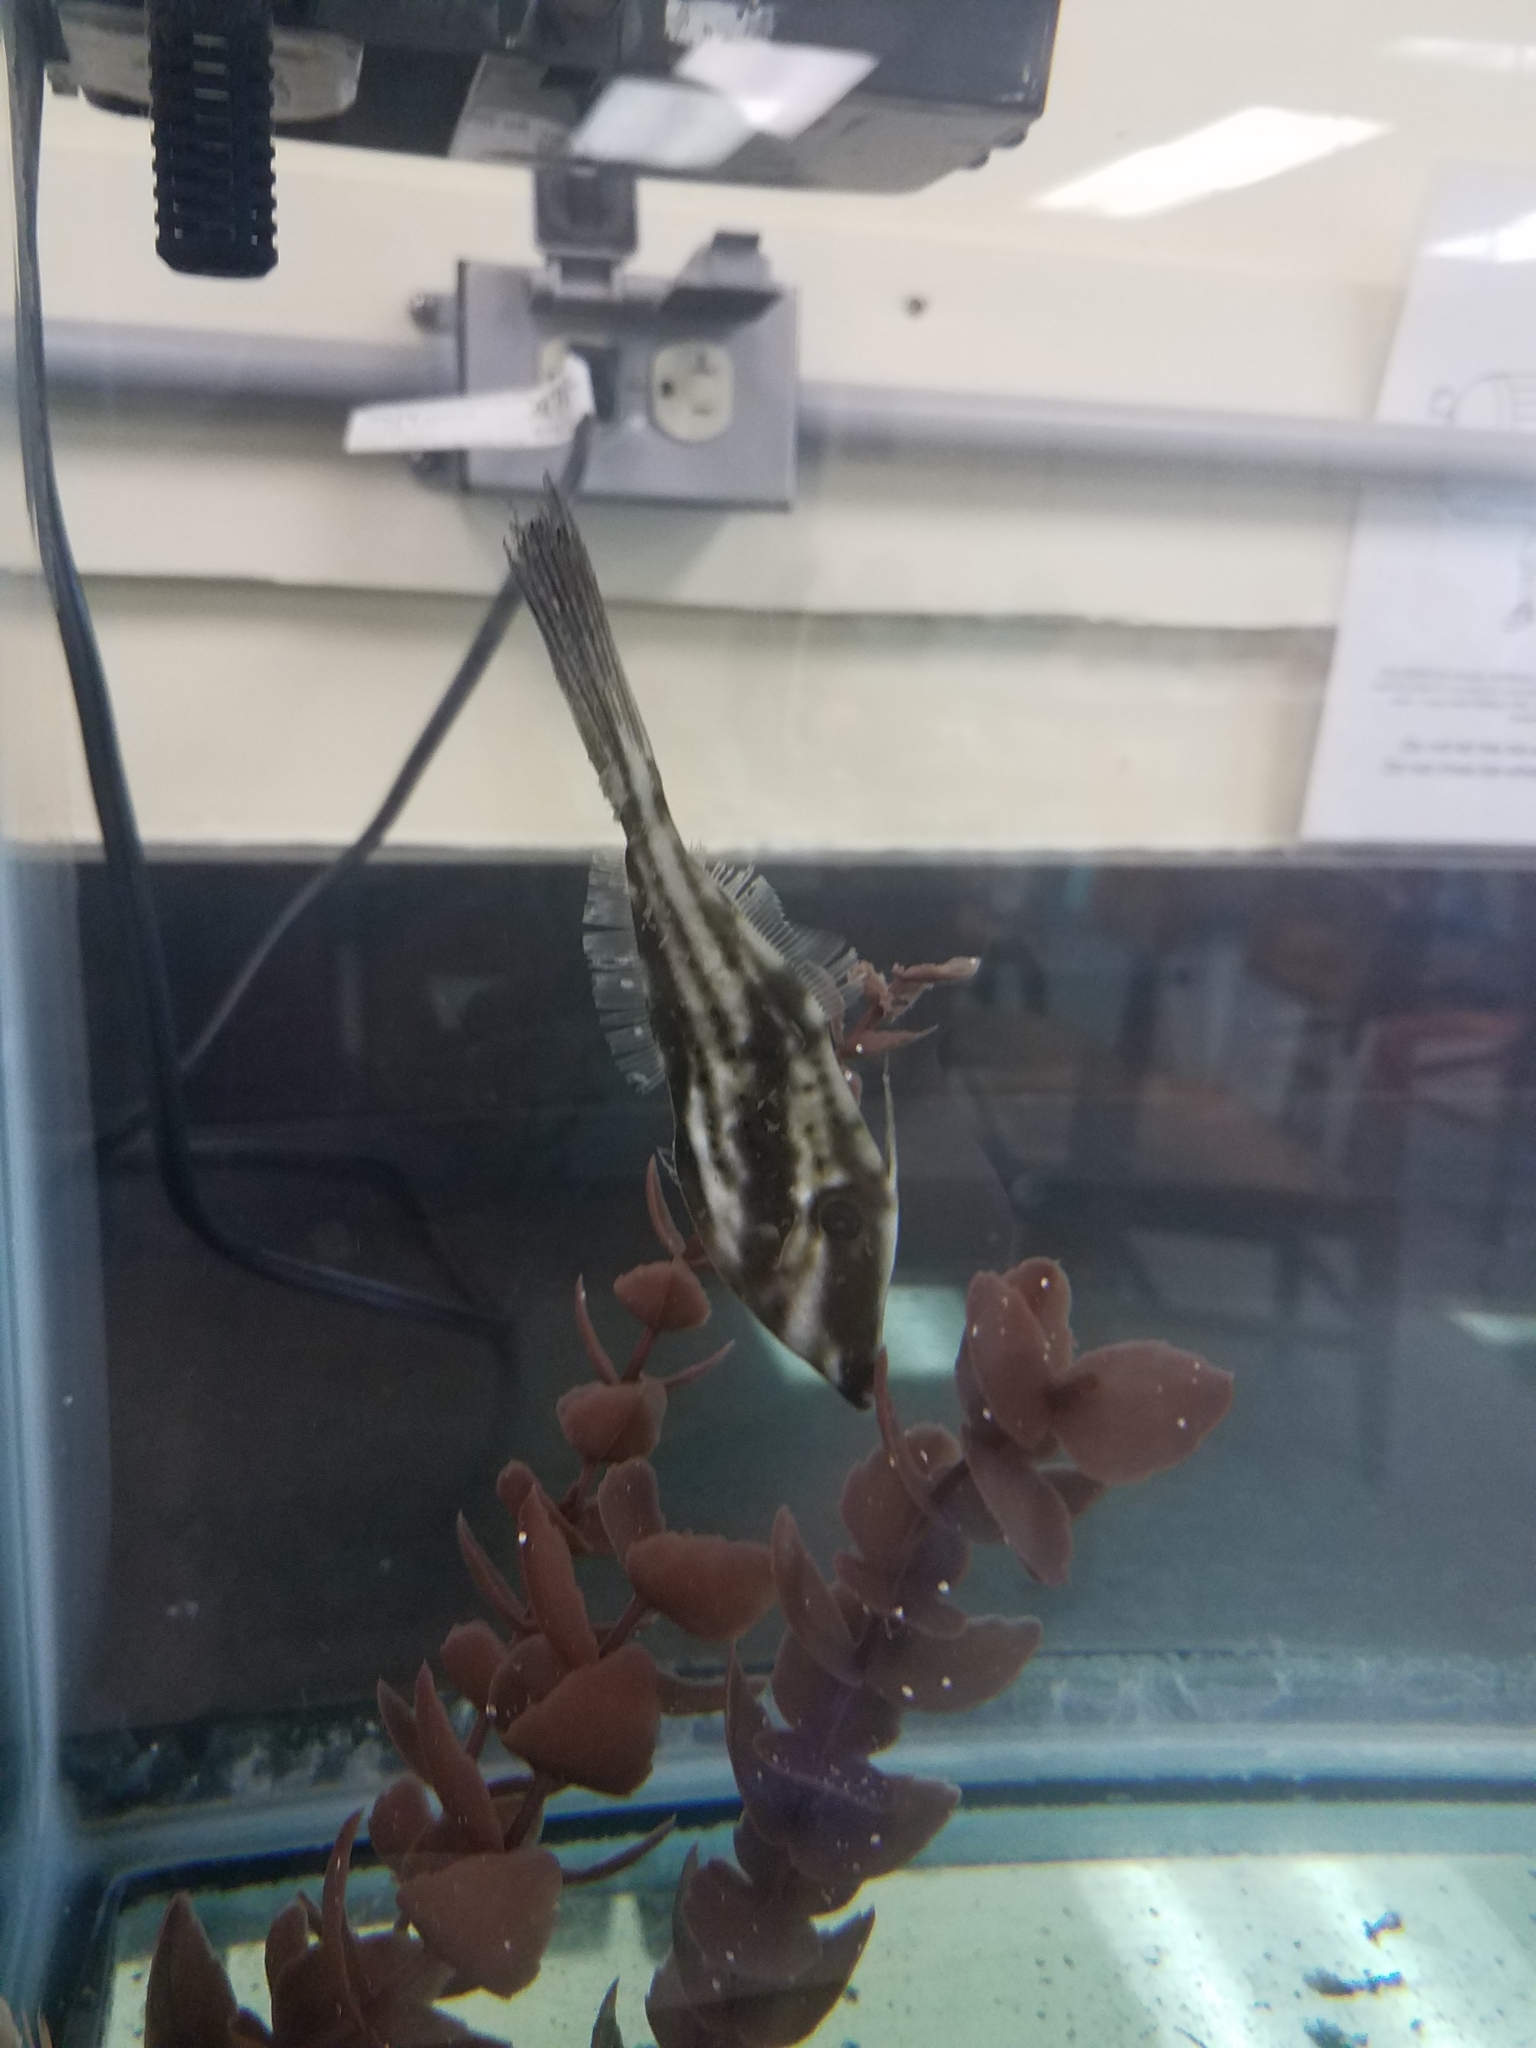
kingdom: Animalia
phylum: Chordata
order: Tetraodontiformes
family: Monacanthidae
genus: Aluterus
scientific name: Aluterus schoepfii
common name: Orange filefish
